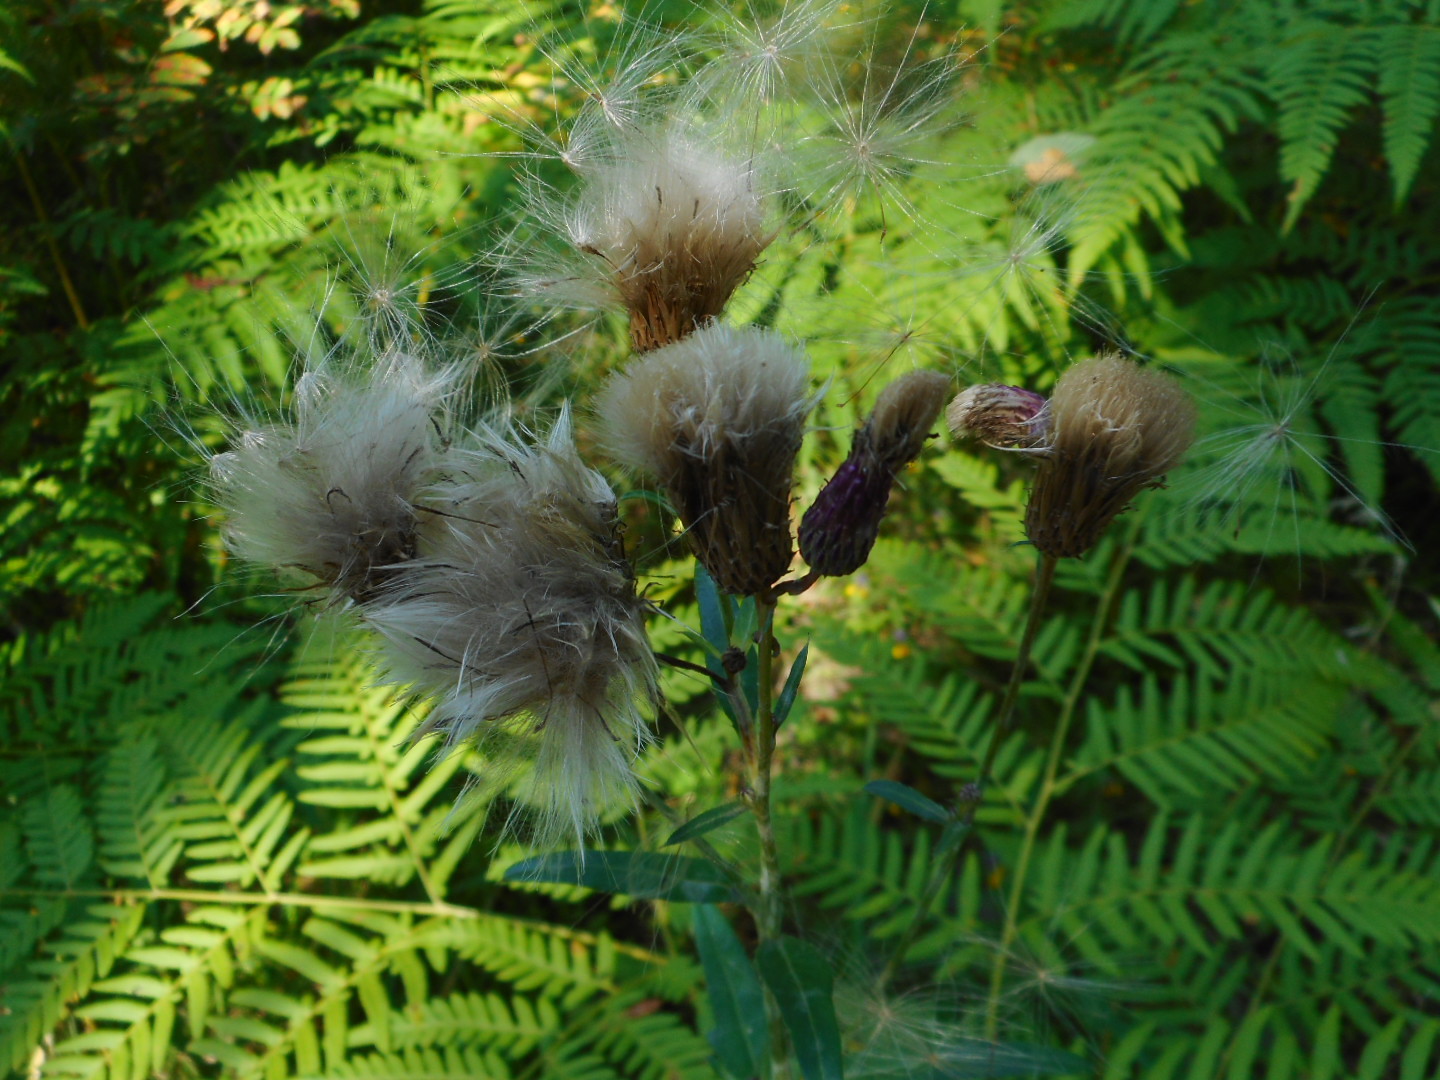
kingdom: Plantae
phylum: Tracheophyta
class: Magnoliopsida
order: Asterales
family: Asteraceae
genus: Cirsium
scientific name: Cirsium arvense
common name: Creeping thistle
